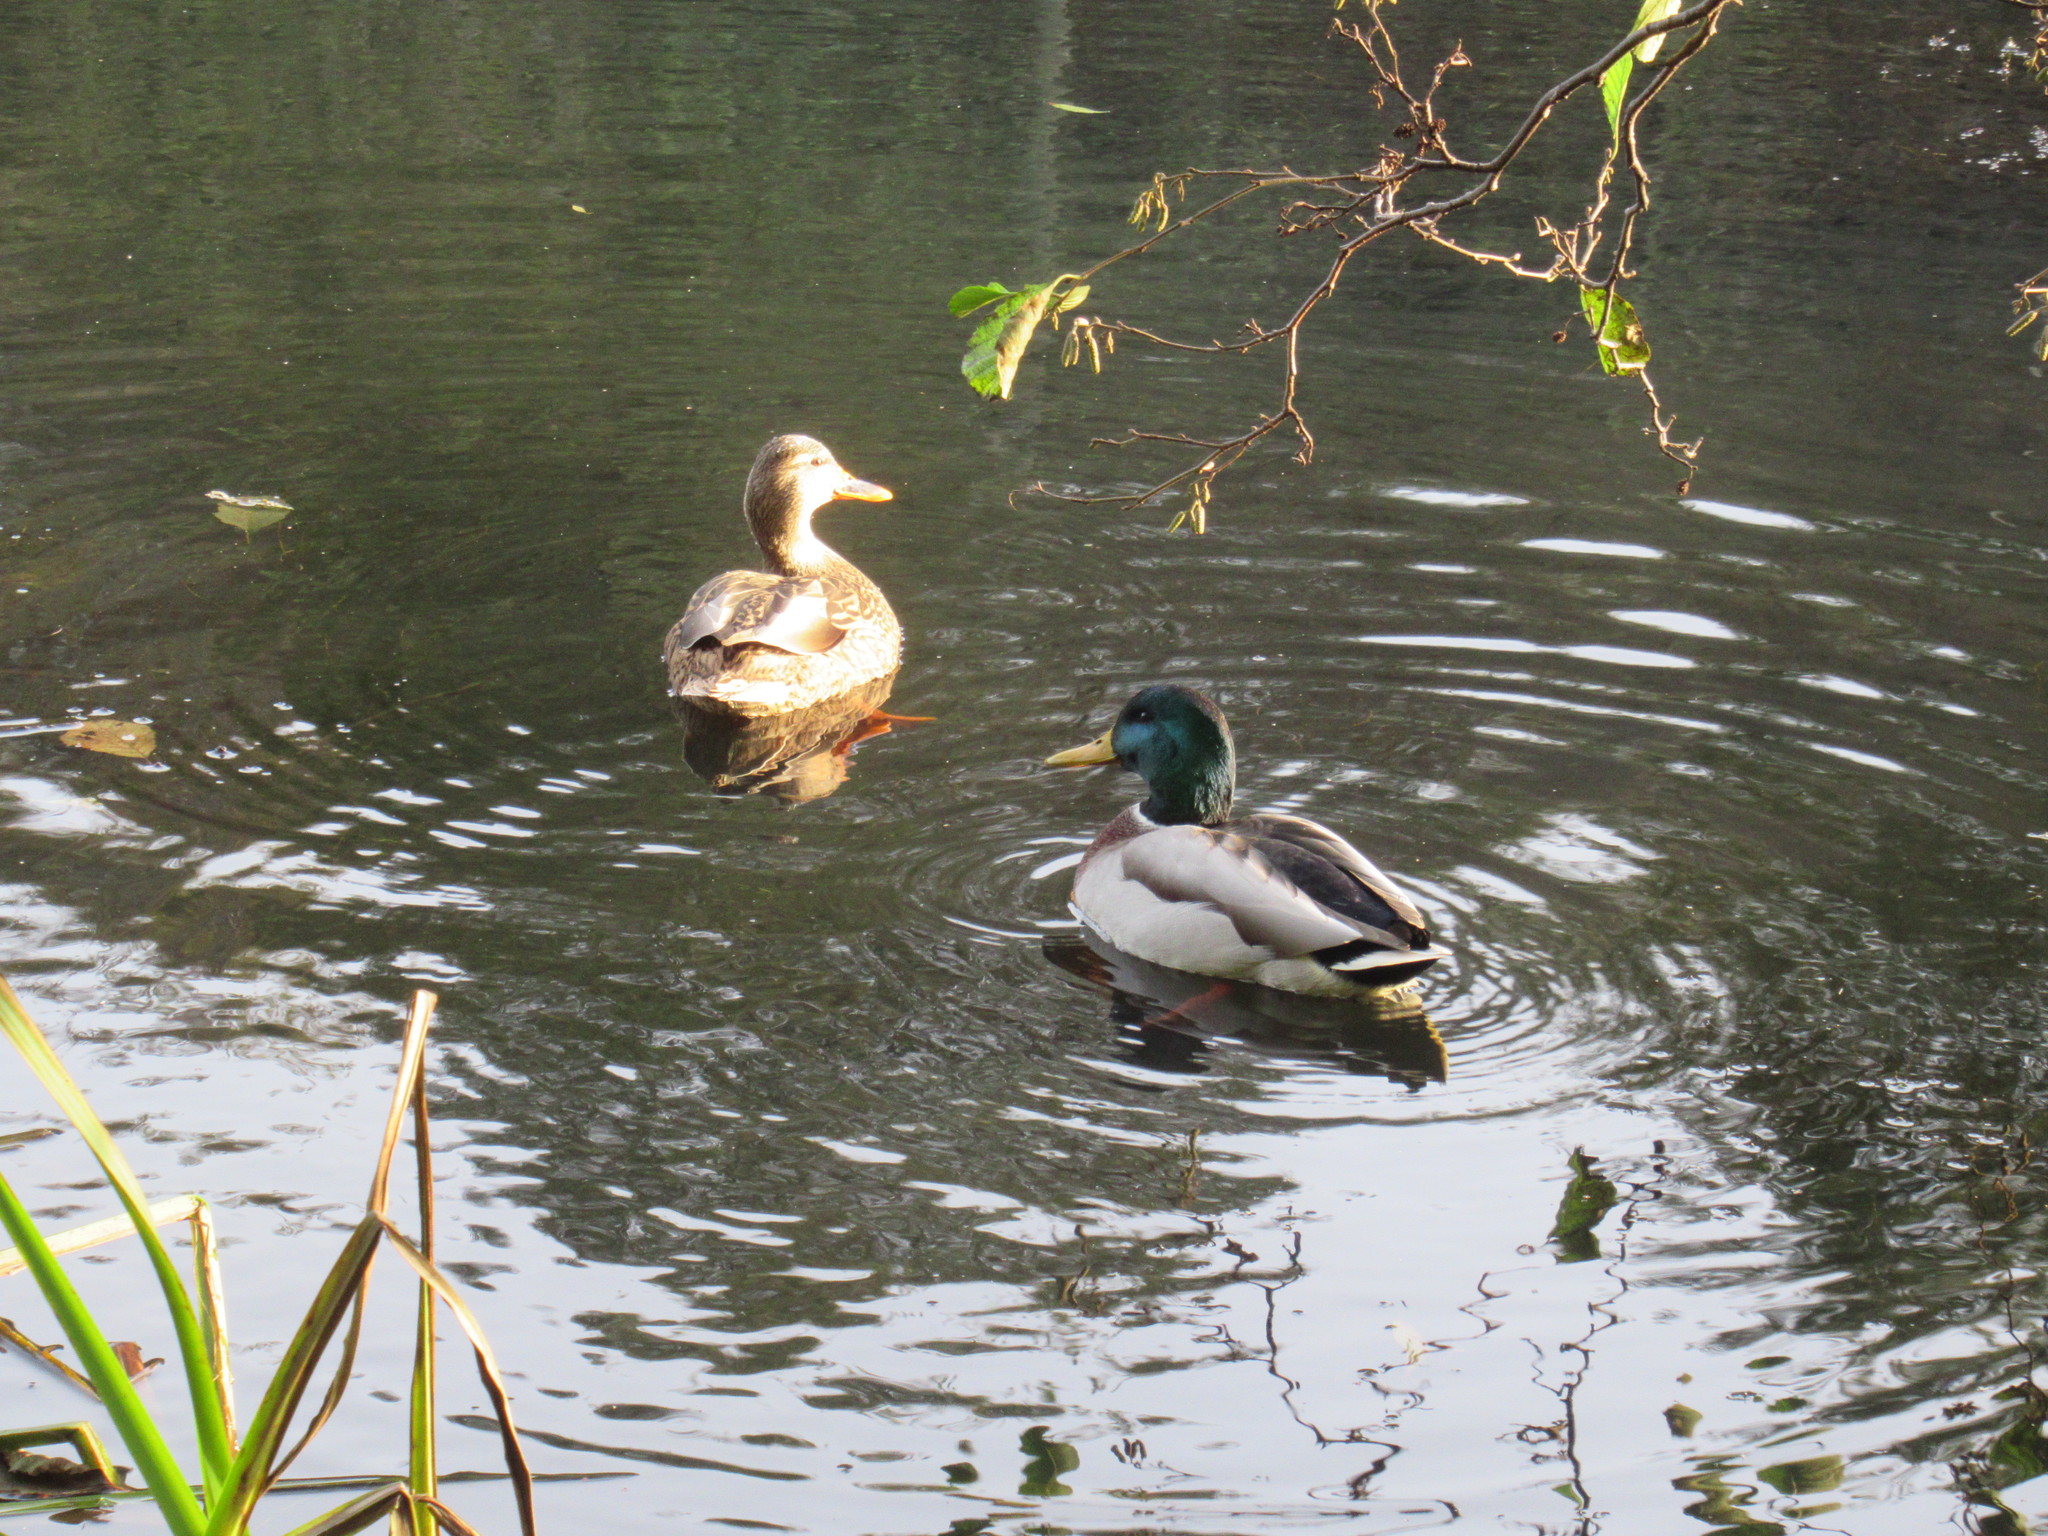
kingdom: Animalia
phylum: Chordata
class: Aves
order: Anseriformes
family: Anatidae
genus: Anas
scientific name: Anas platyrhynchos
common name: Mallard
